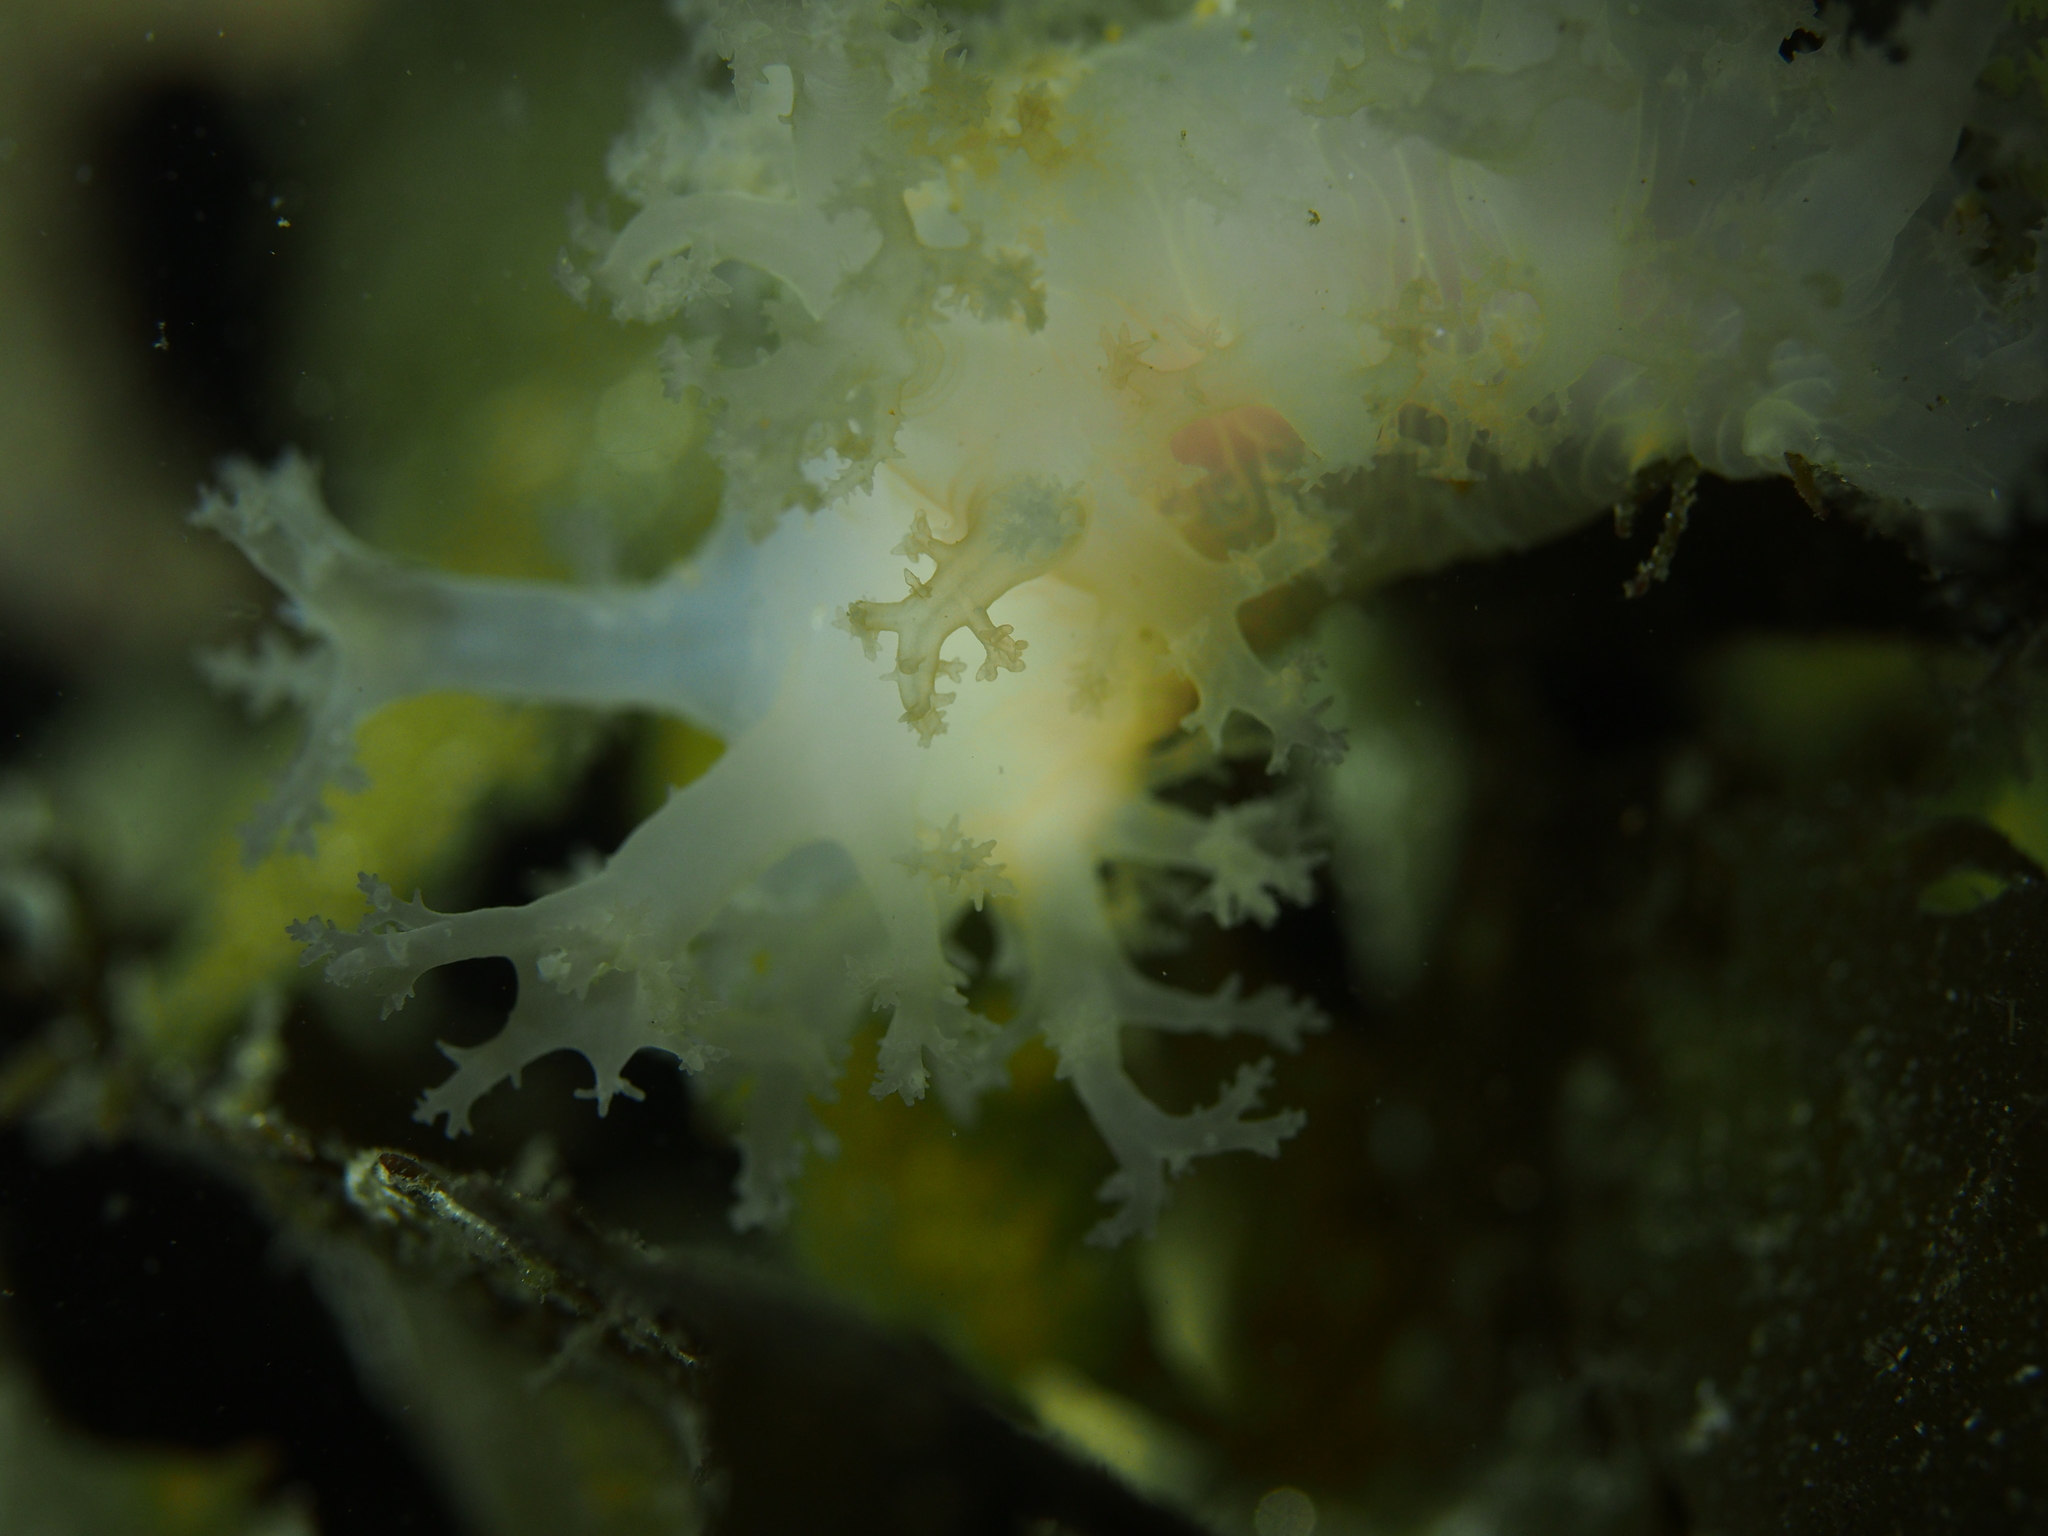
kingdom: Animalia
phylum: Mollusca
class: Gastropoda
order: Nudibranchia
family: Dendronotidae
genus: Dendronotus
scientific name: Dendronotus lacteus
